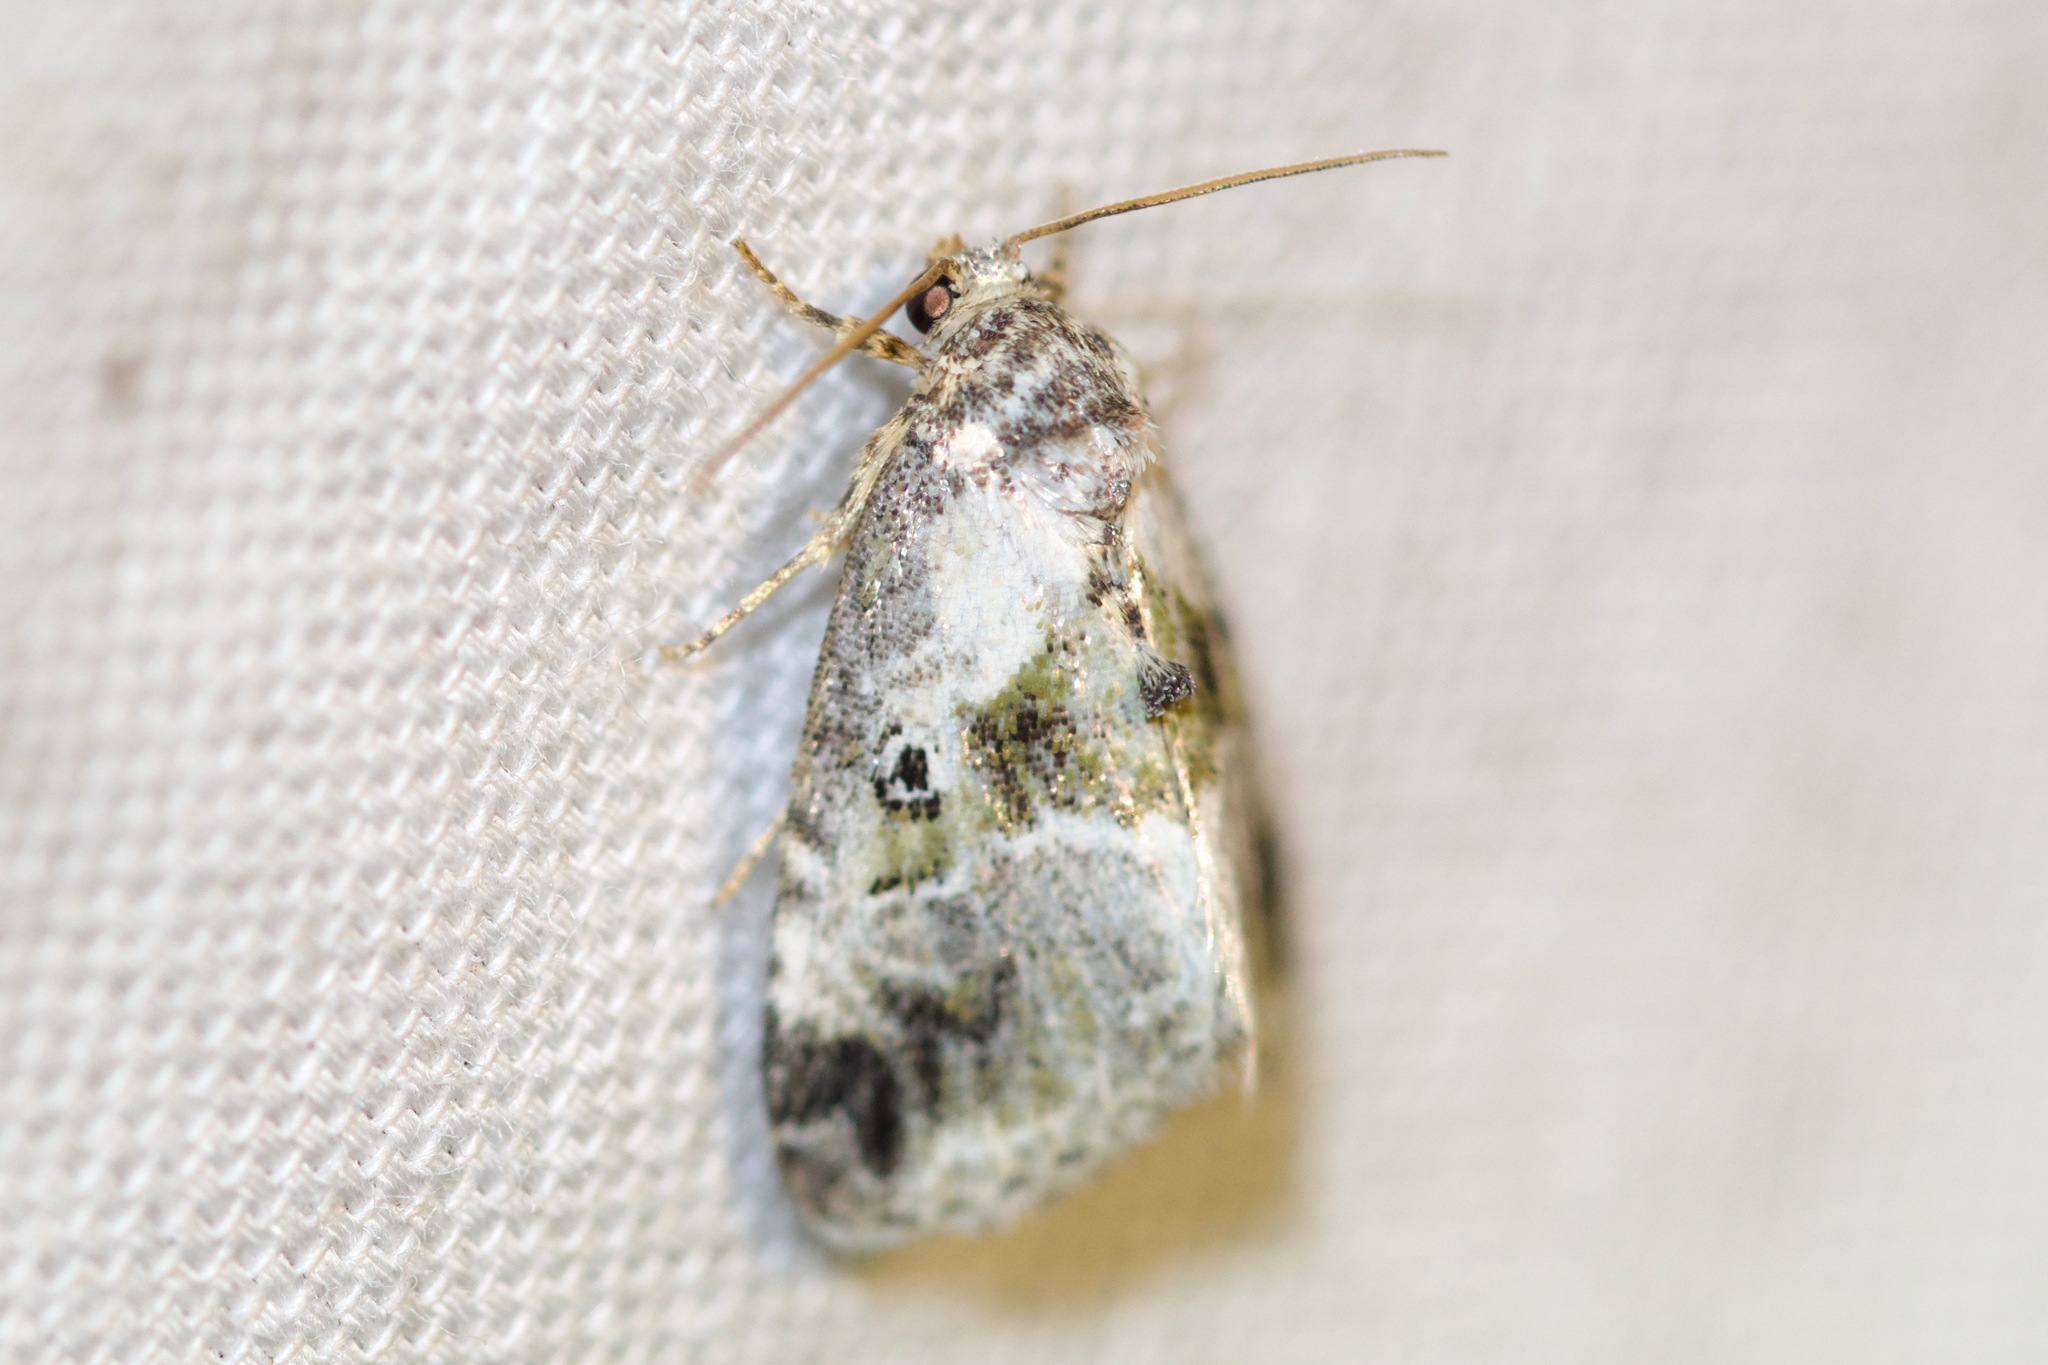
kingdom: Animalia
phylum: Arthropoda
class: Insecta
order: Lepidoptera
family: Noctuidae
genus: Maliattha
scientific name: Maliattha synochitis
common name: Black-dotted glyph
